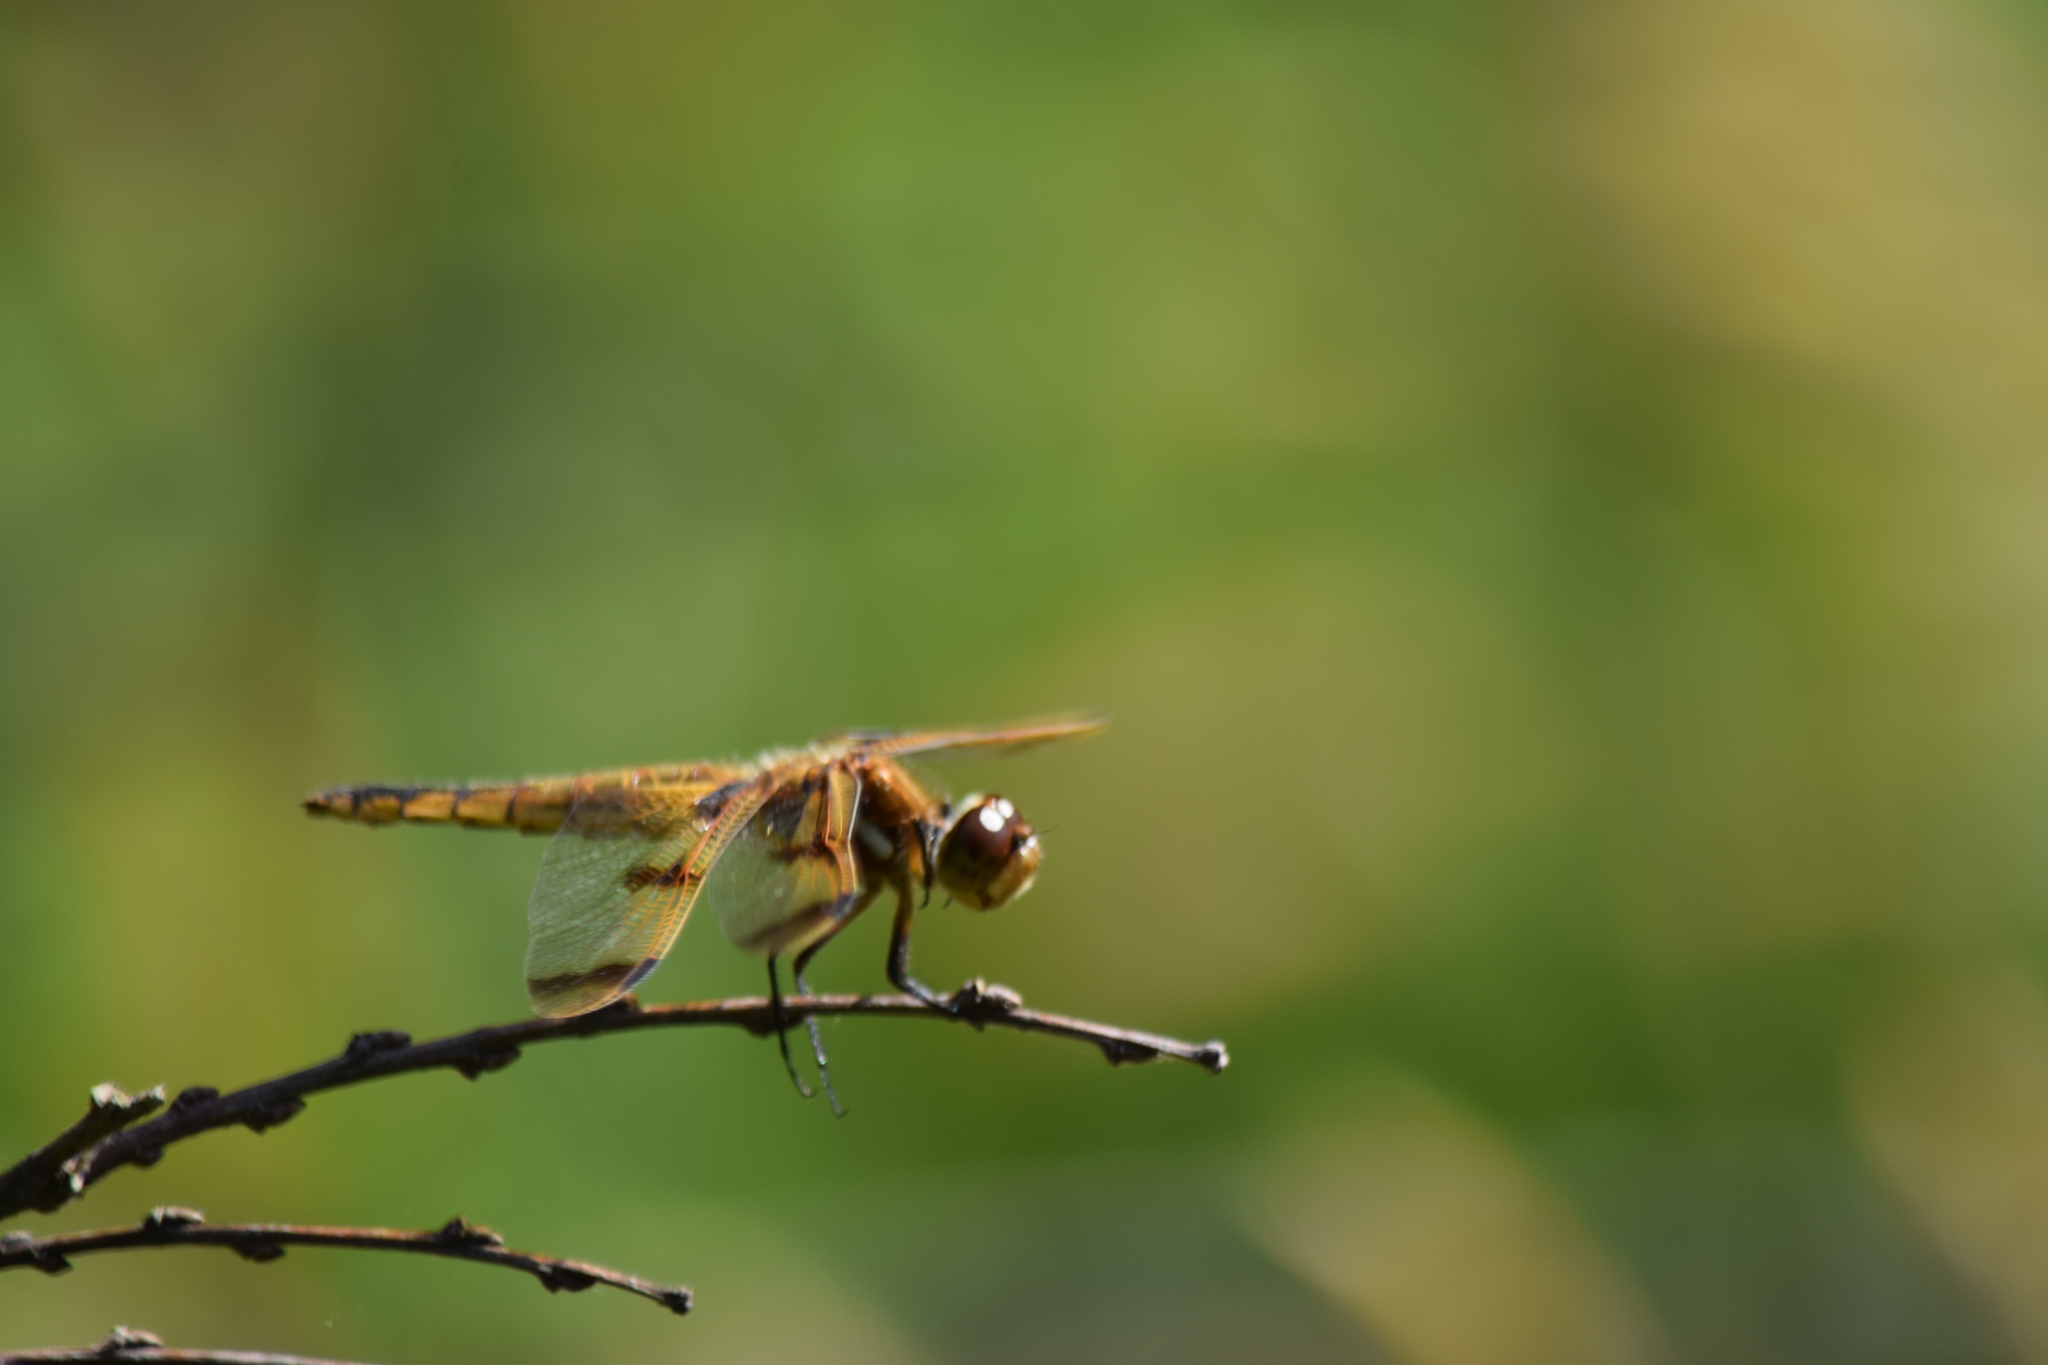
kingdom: Animalia
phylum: Arthropoda
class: Insecta
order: Odonata
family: Libellulidae
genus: Libellula
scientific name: Libellula semifasciata
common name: Painted skimmer
